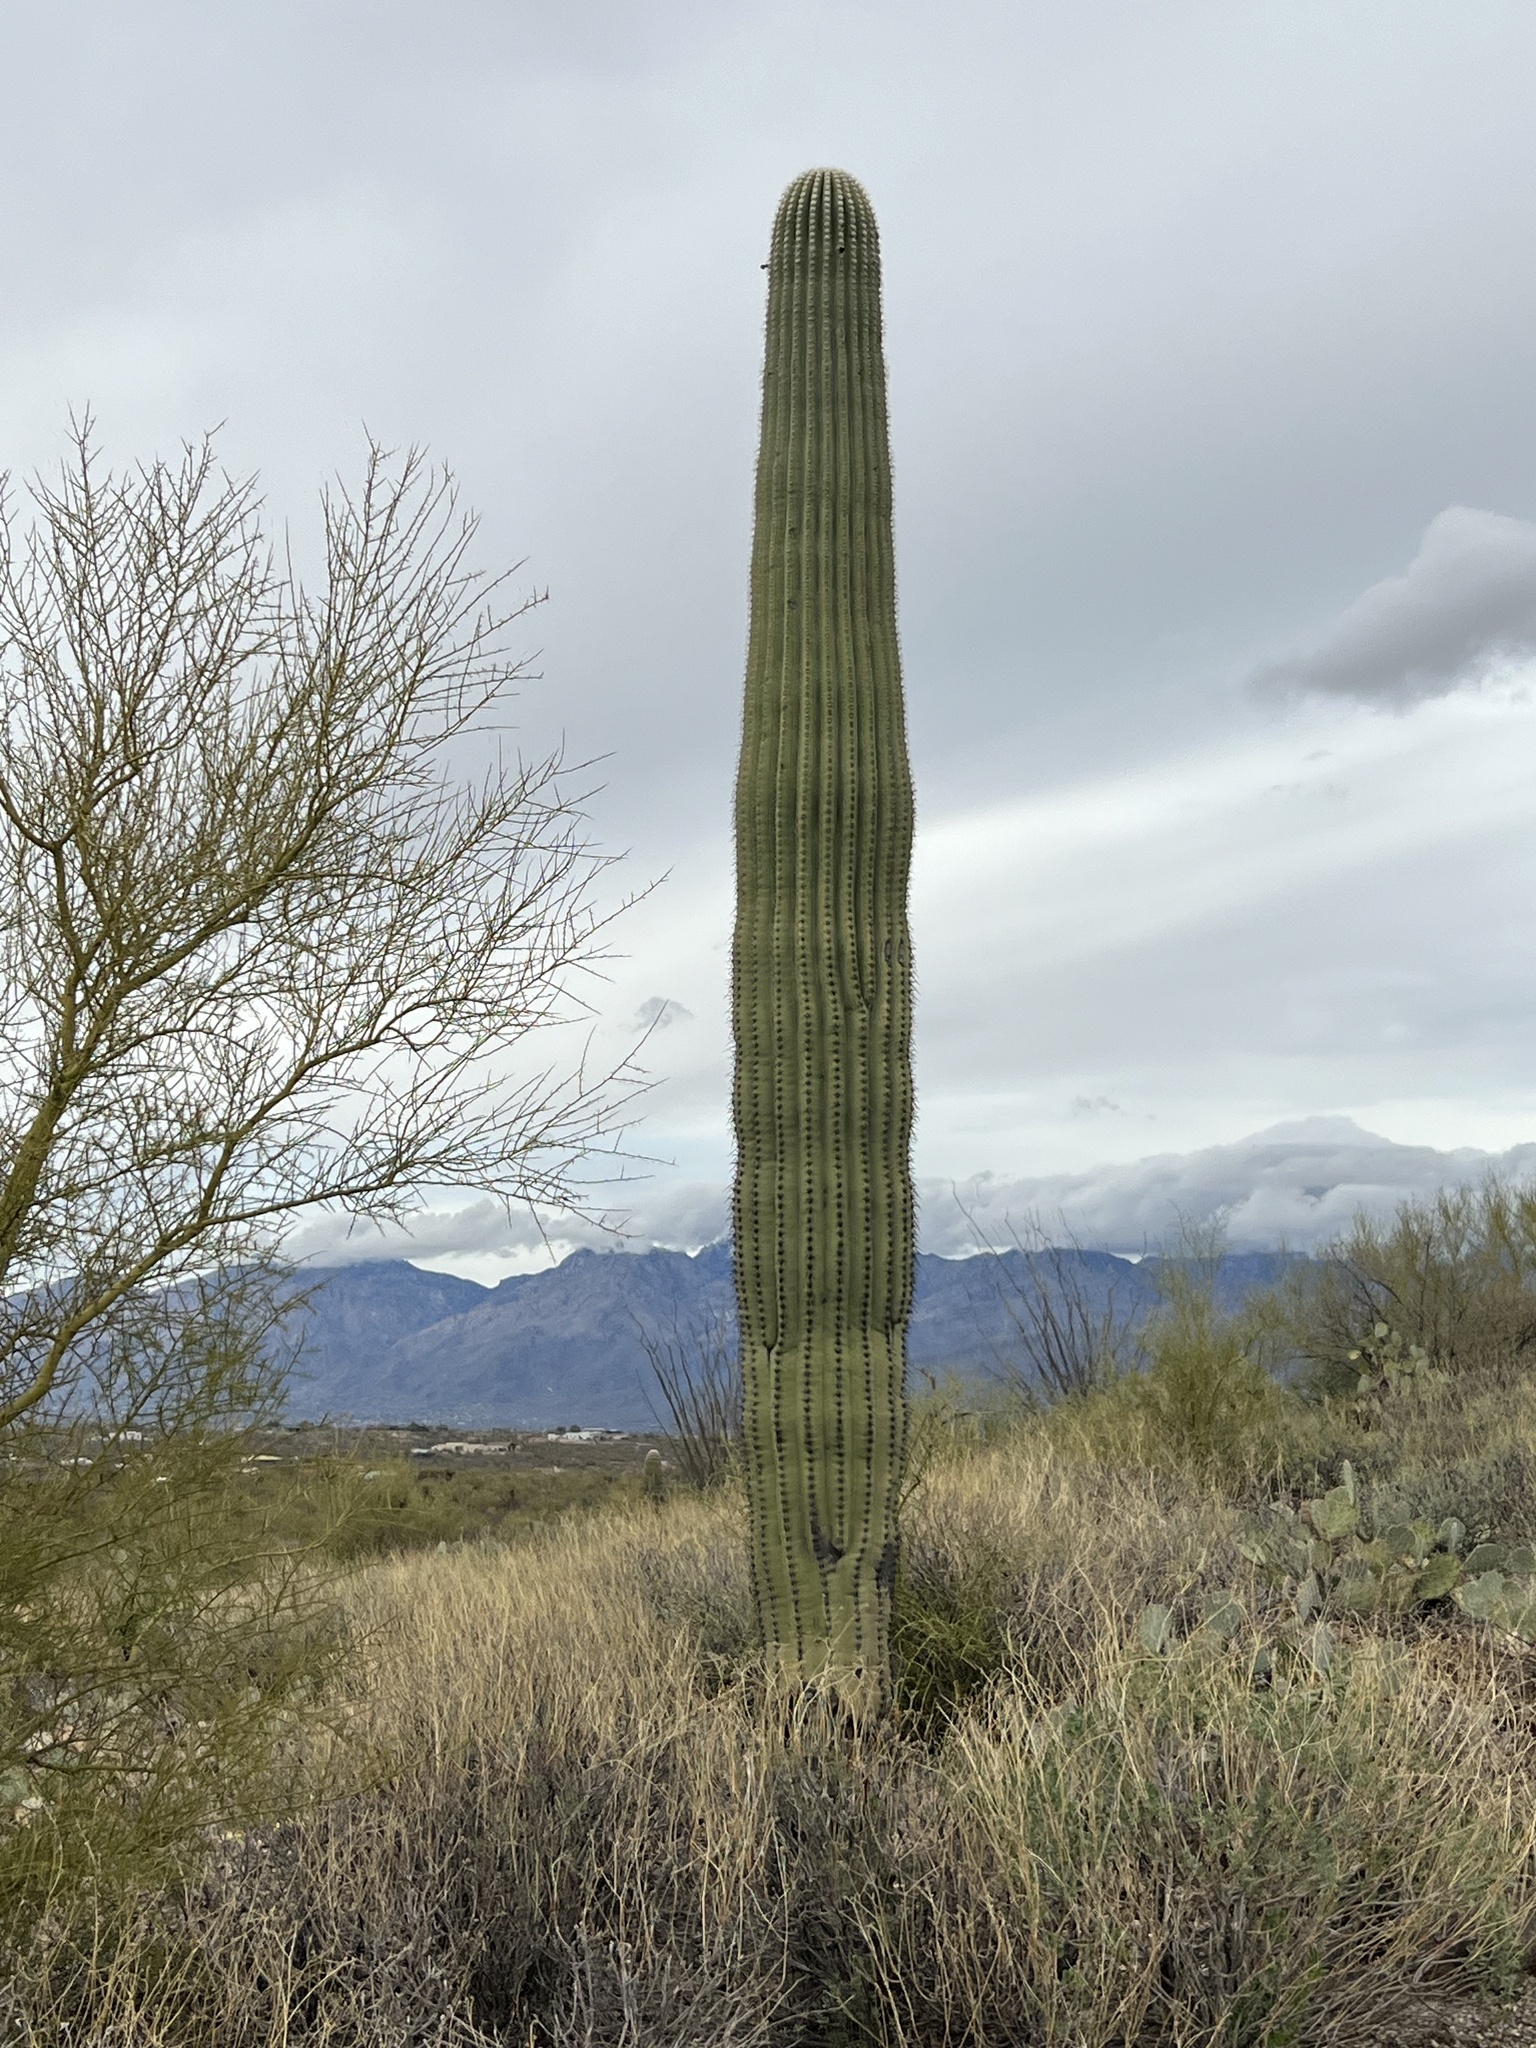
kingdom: Plantae
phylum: Tracheophyta
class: Magnoliopsida
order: Caryophyllales
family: Cactaceae
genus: Carnegiea
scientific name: Carnegiea gigantea
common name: Saguaro
